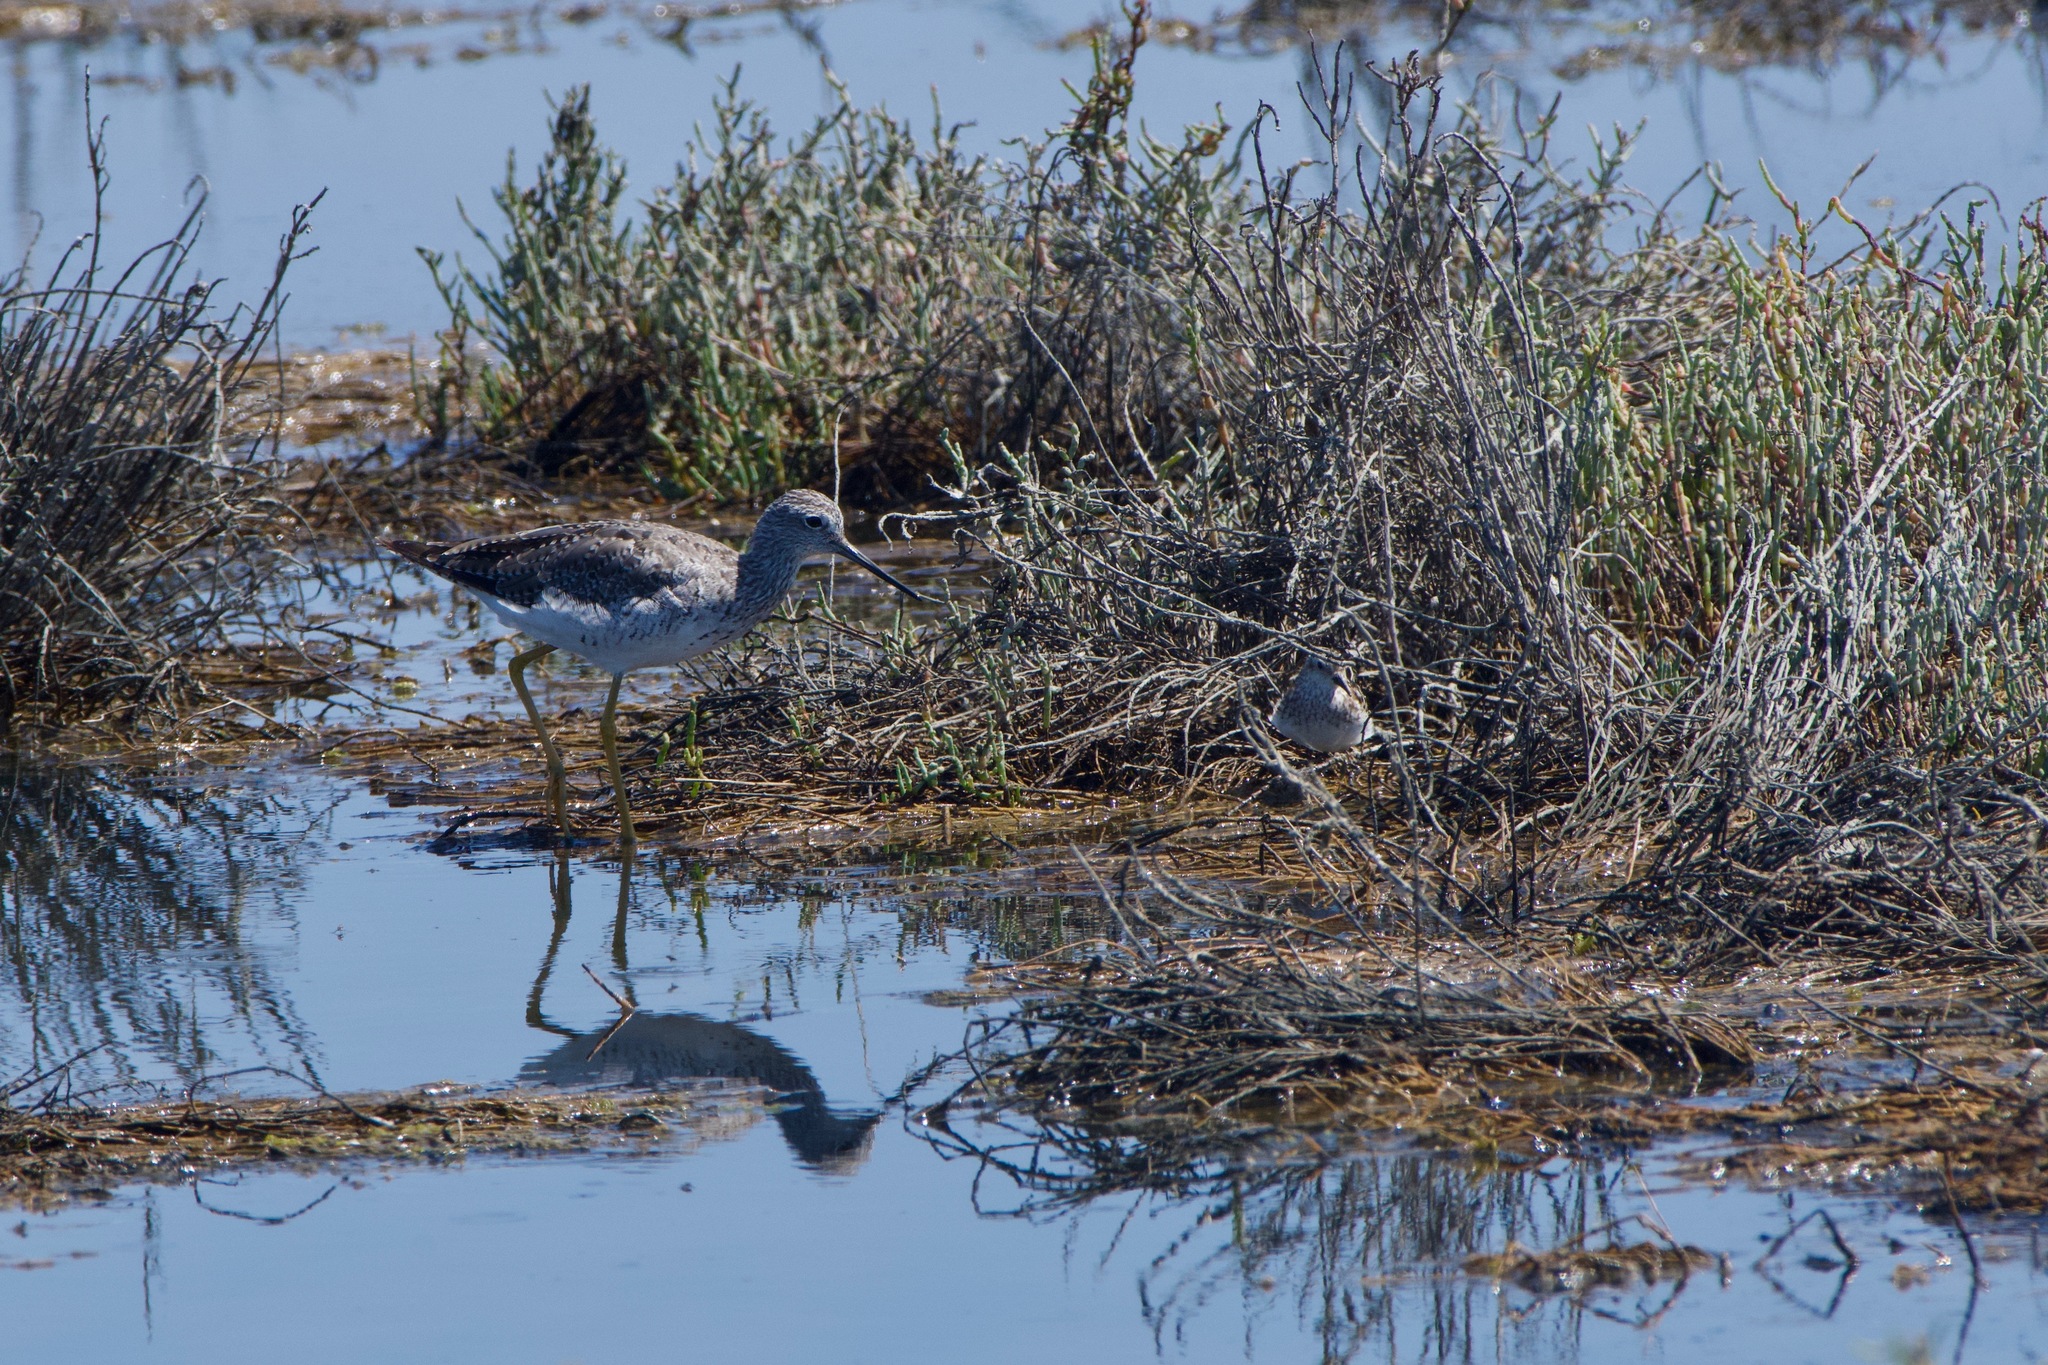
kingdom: Animalia
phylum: Chordata
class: Aves
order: Charadriiformes
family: Scolopacidae
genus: Tringa
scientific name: Tringa melanoleuca
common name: Greater yellowlegs
